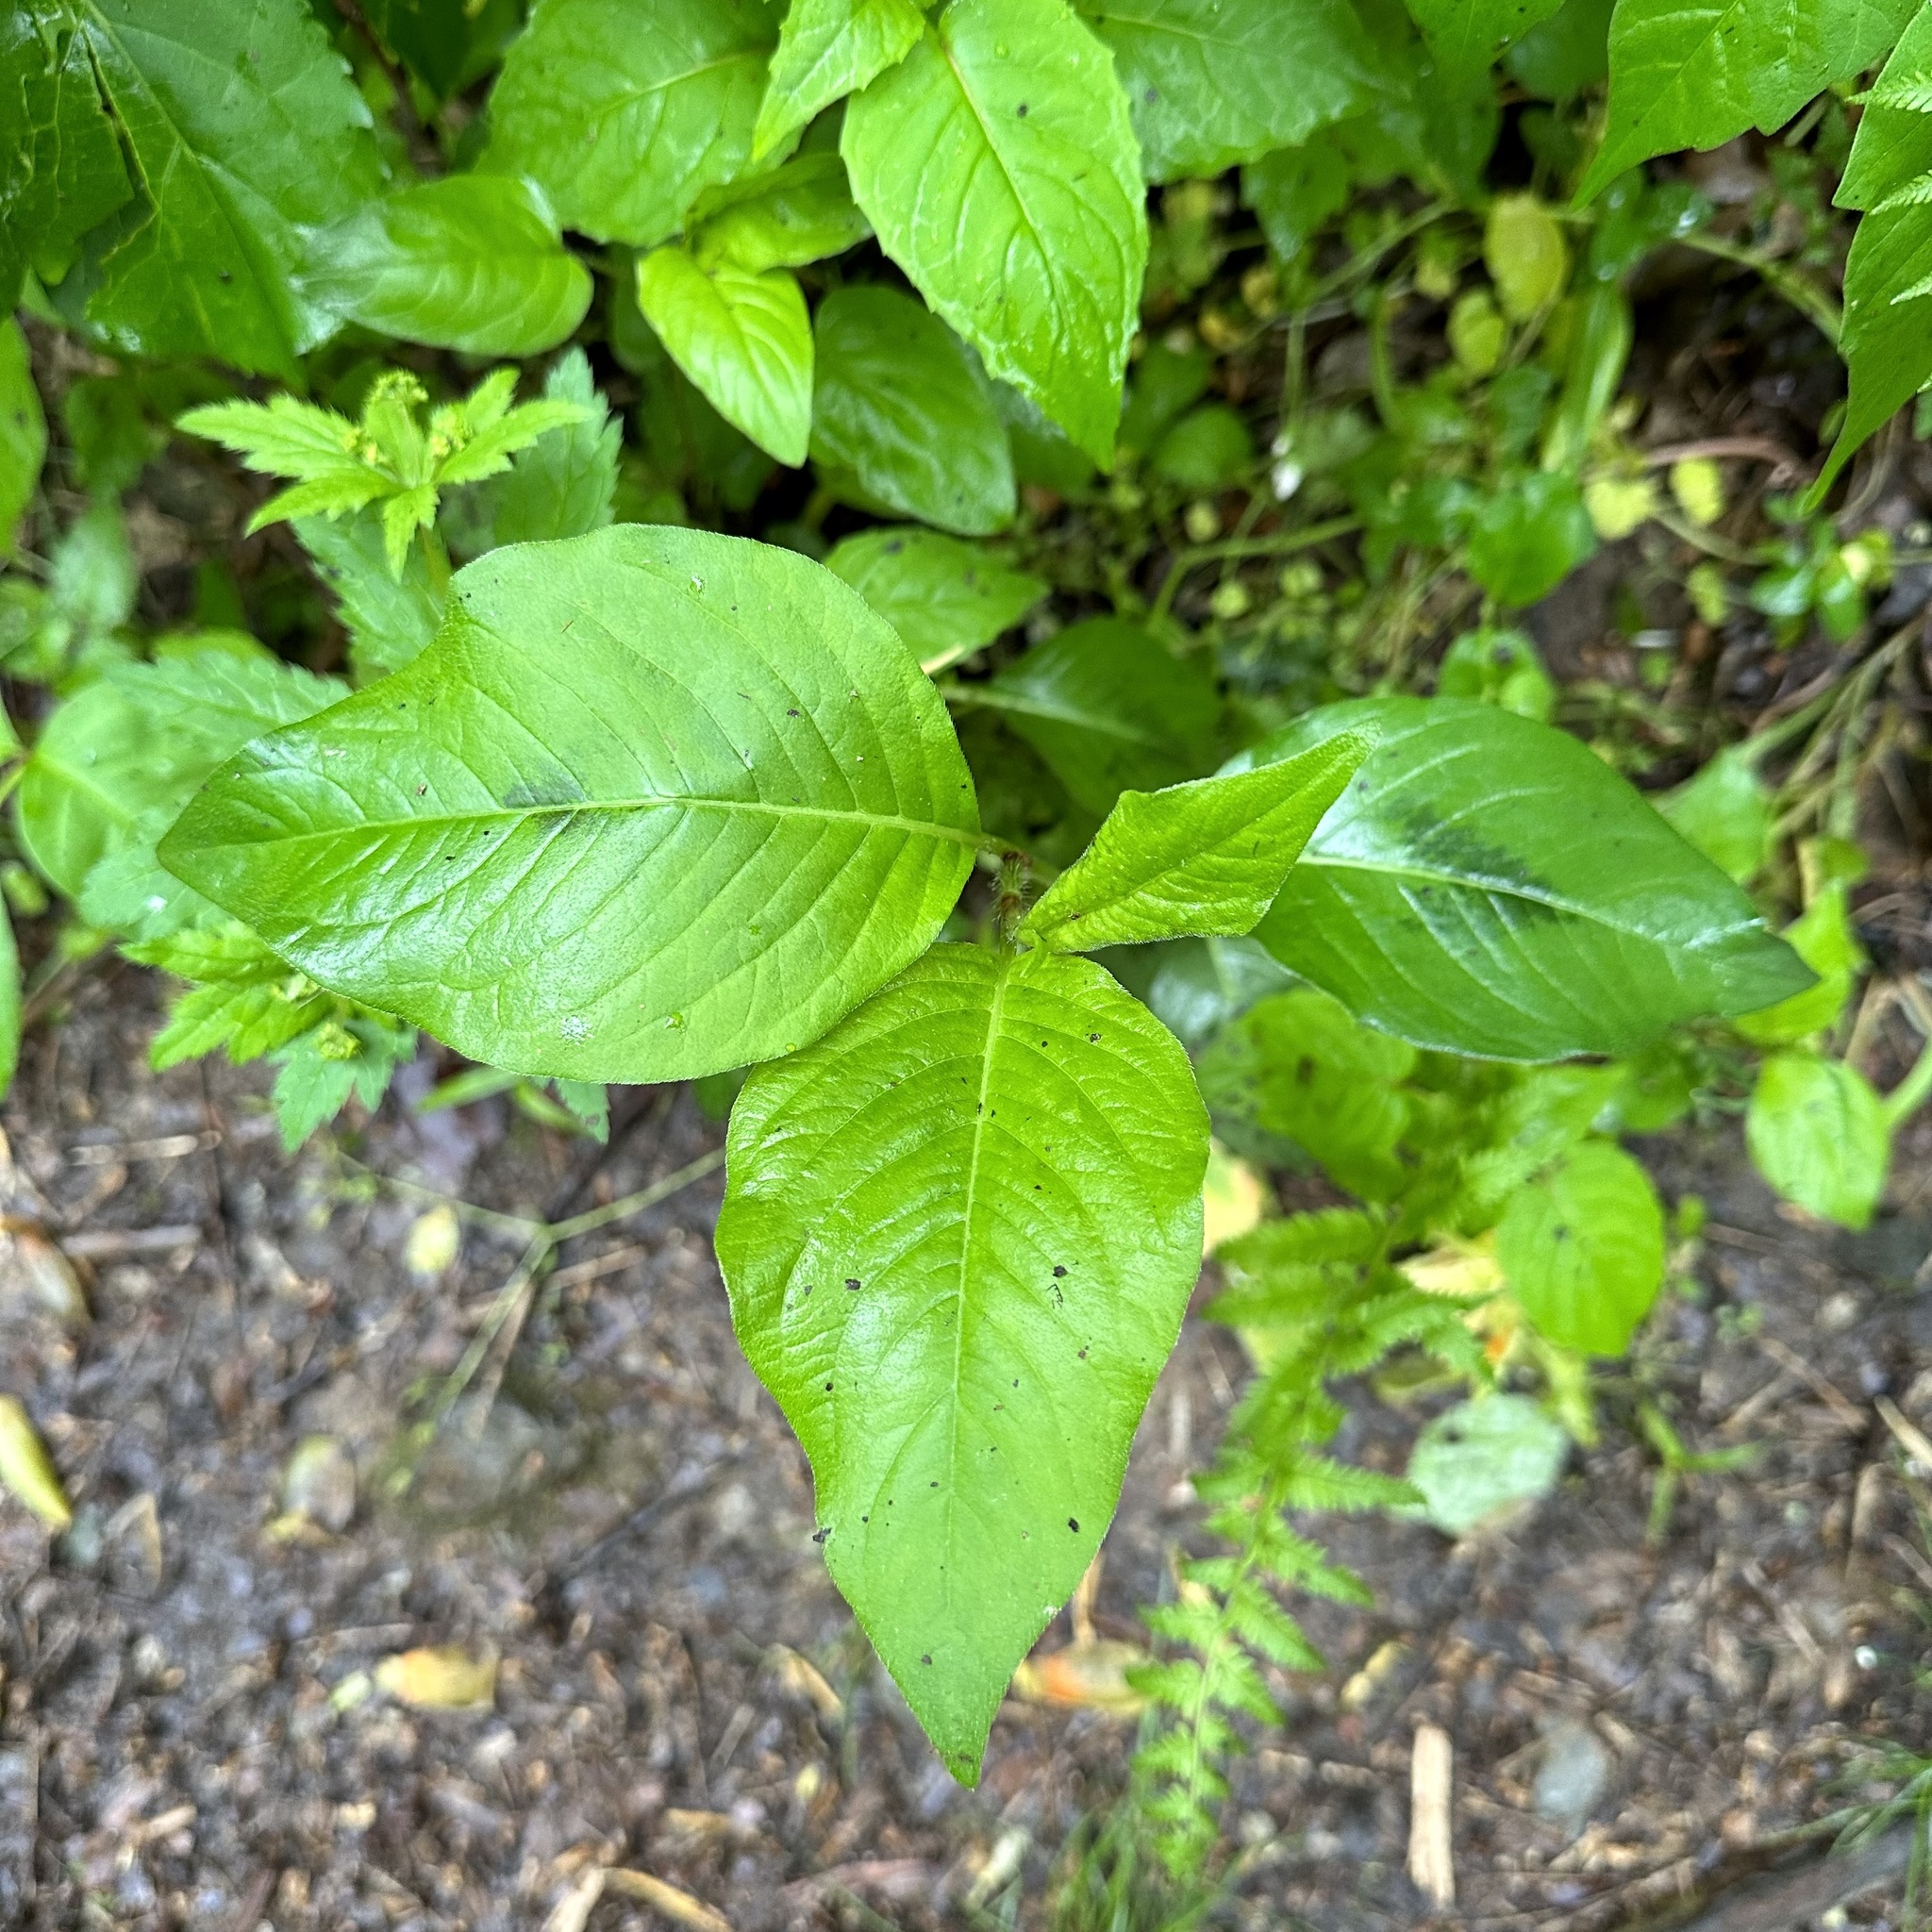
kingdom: Plantae
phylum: Tracheophyta
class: Magnoliopsida
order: Caryophyllales
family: Polygonaceae
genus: Persicaria
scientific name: Persicaria virginiana
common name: Jumpseed
